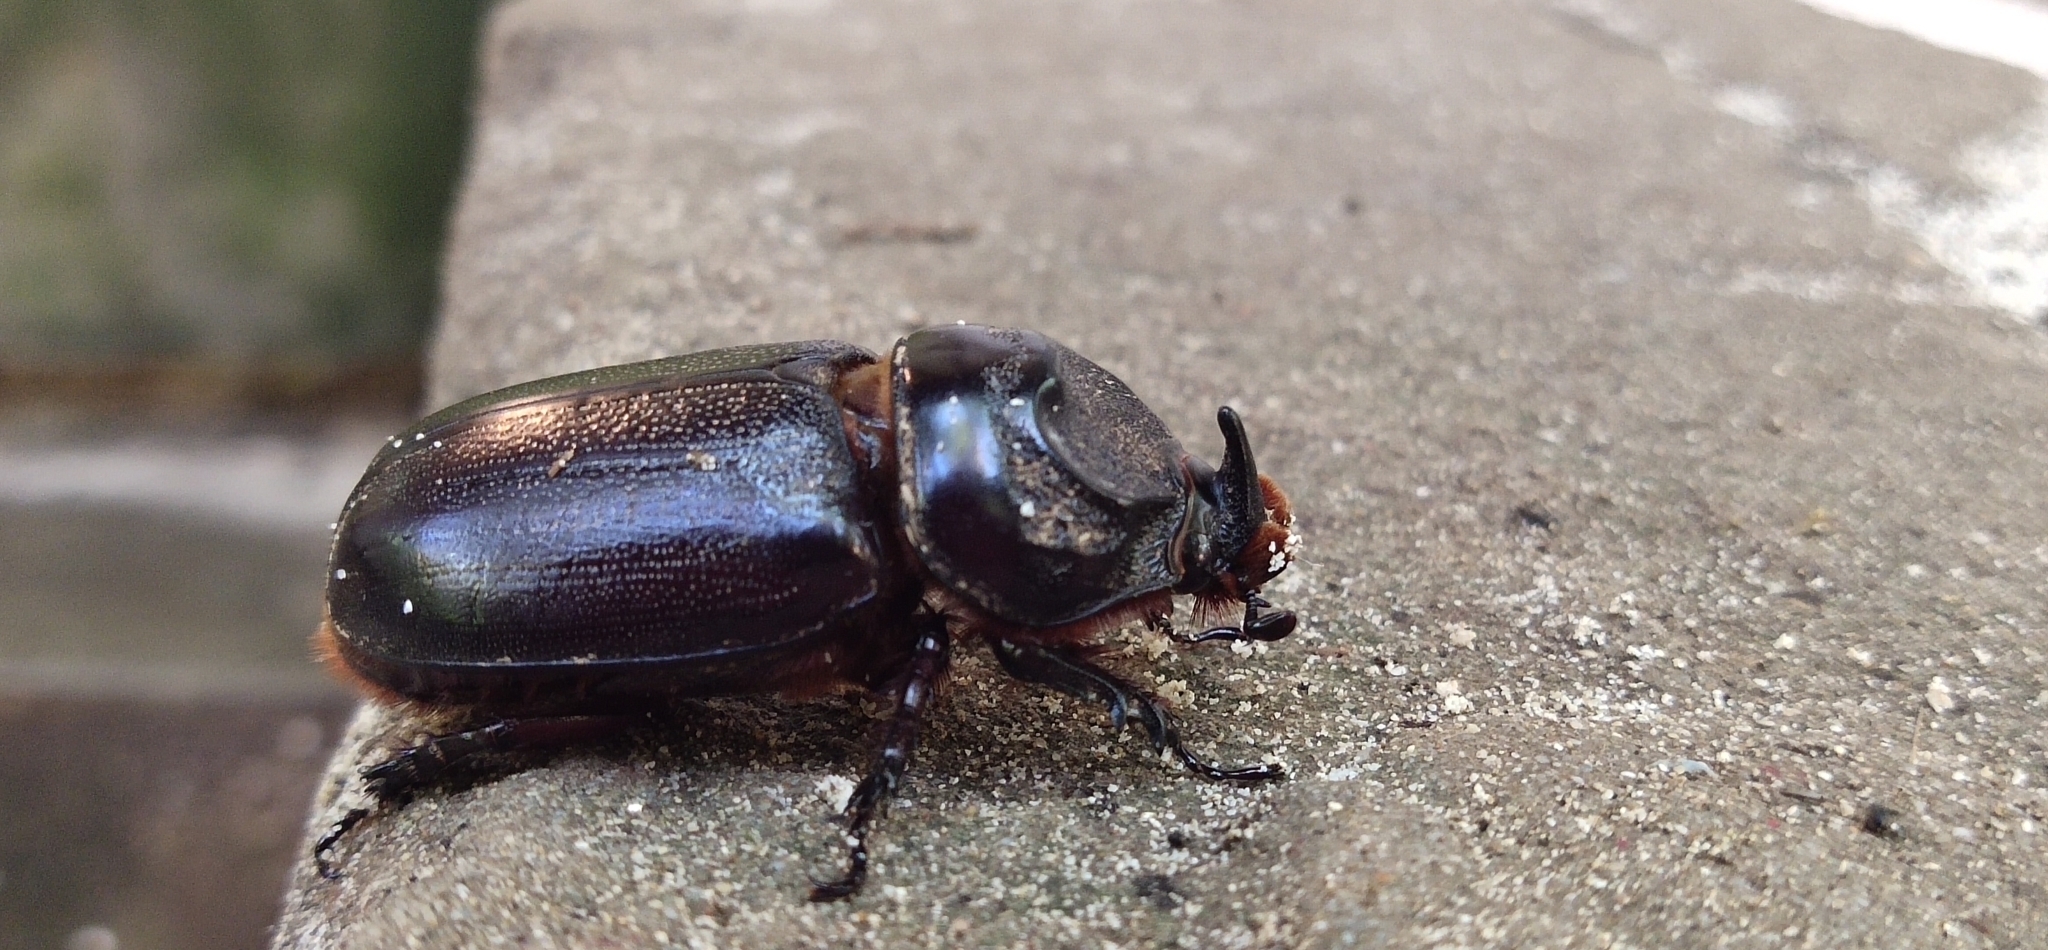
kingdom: Animalia
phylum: Arthropoda
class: Insecta
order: Coleoptera
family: Scarabaeidae
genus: Oryctes
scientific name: Oryctes rhinoceros
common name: Coconut rhinoceros beetle
